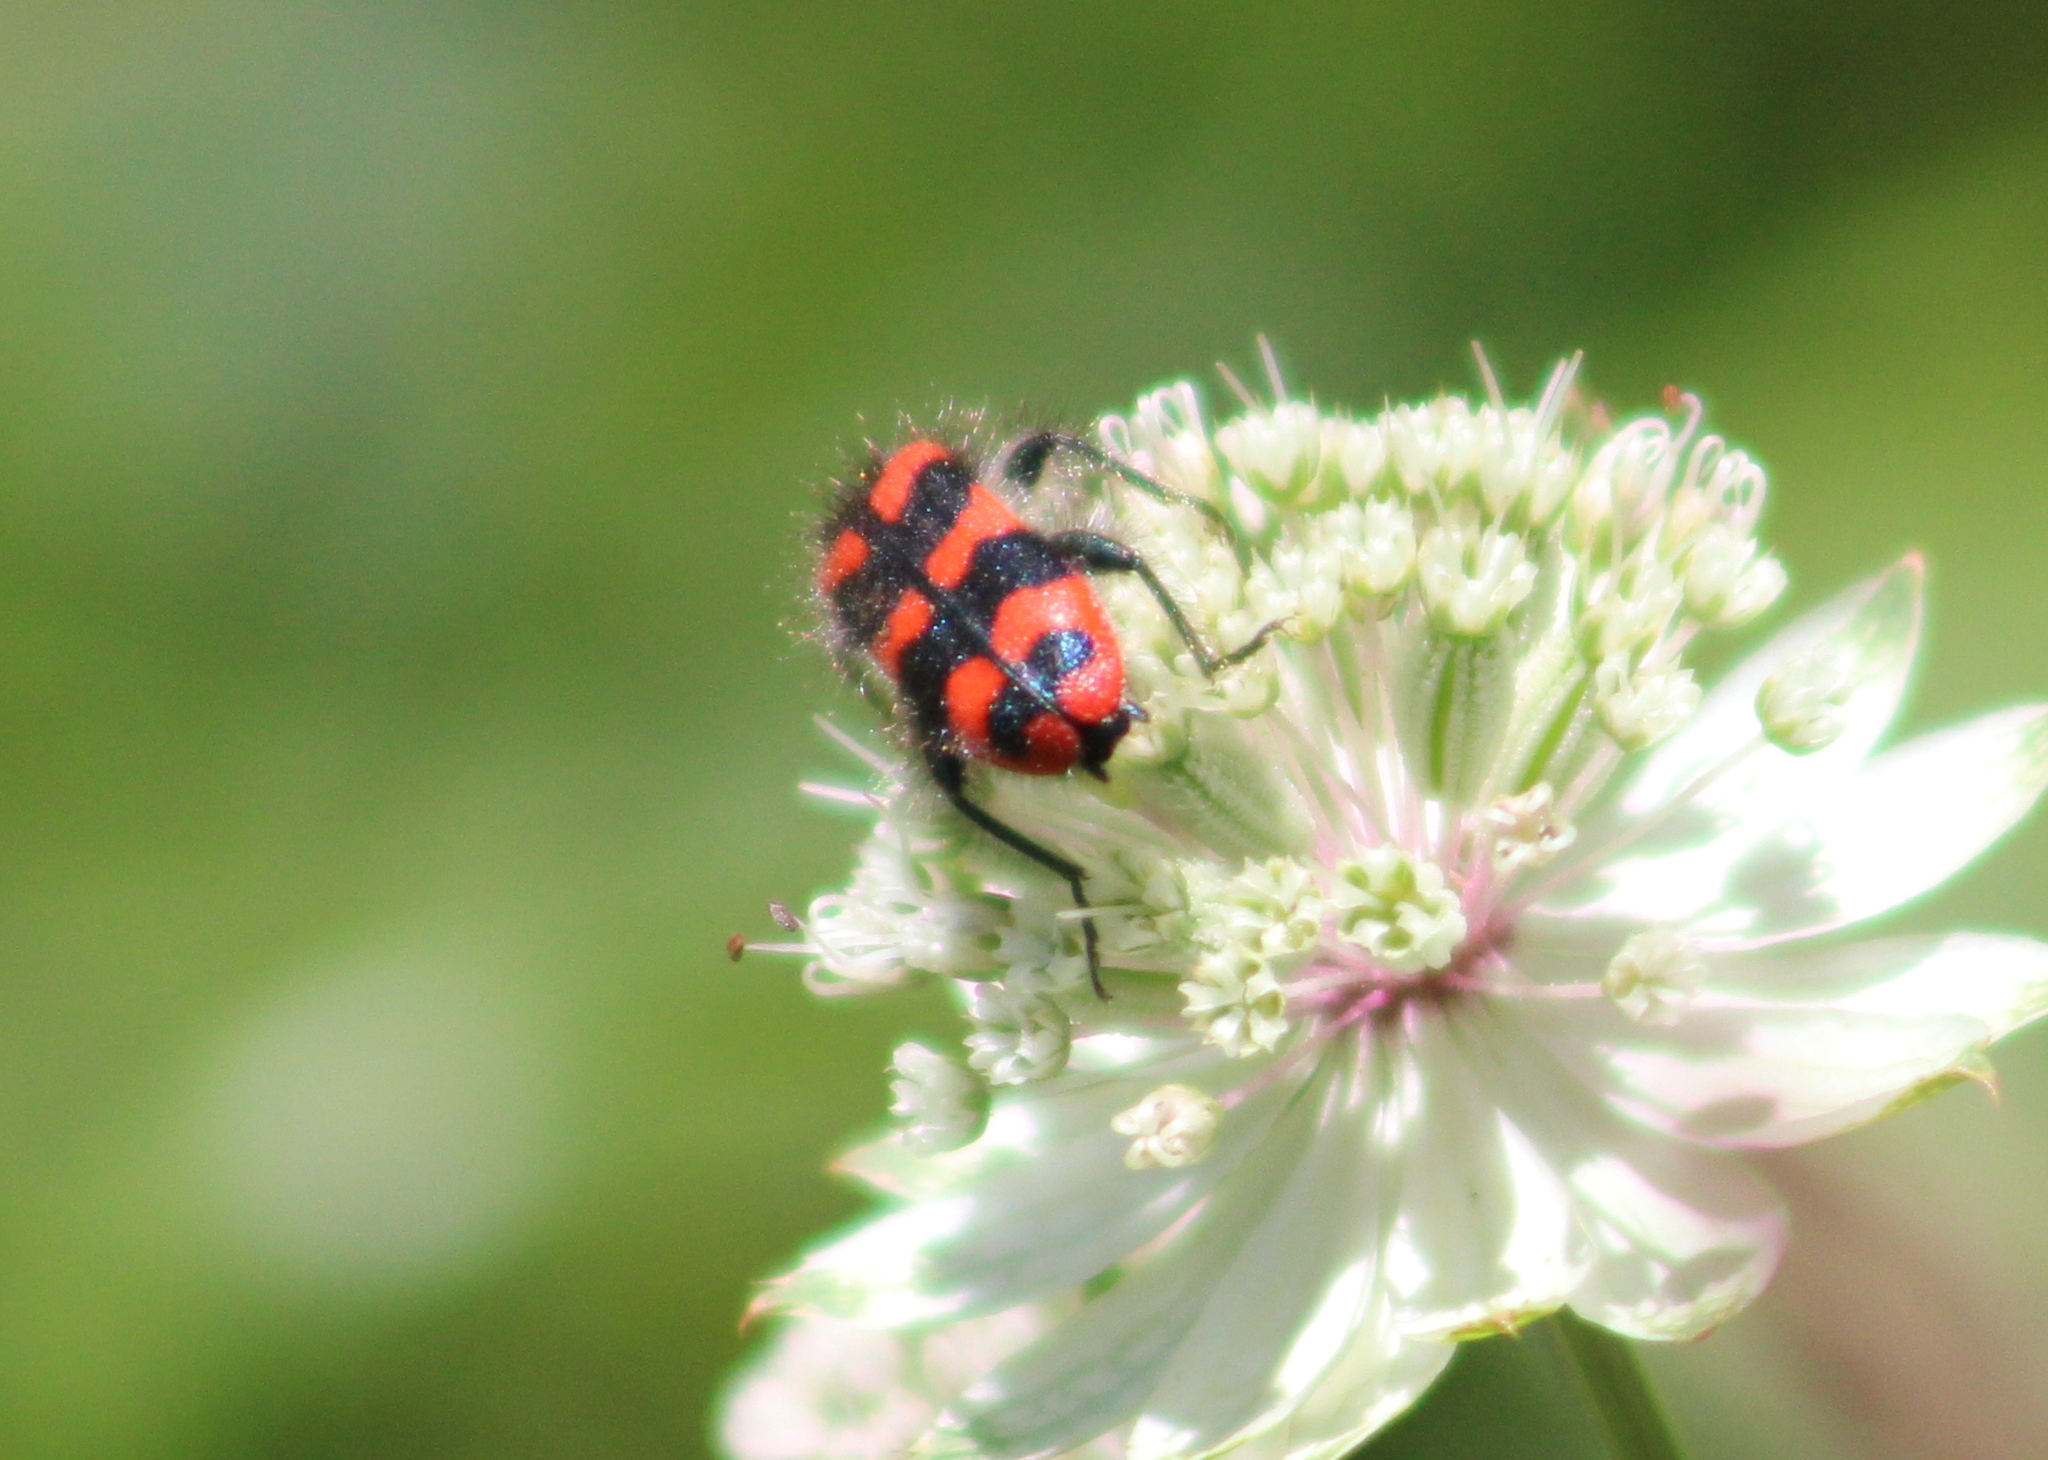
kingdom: Animalia
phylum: Arthropoda
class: Insecta
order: Coleoptera
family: Cleridae
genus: Trichodes
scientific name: Trichodes alvearius
